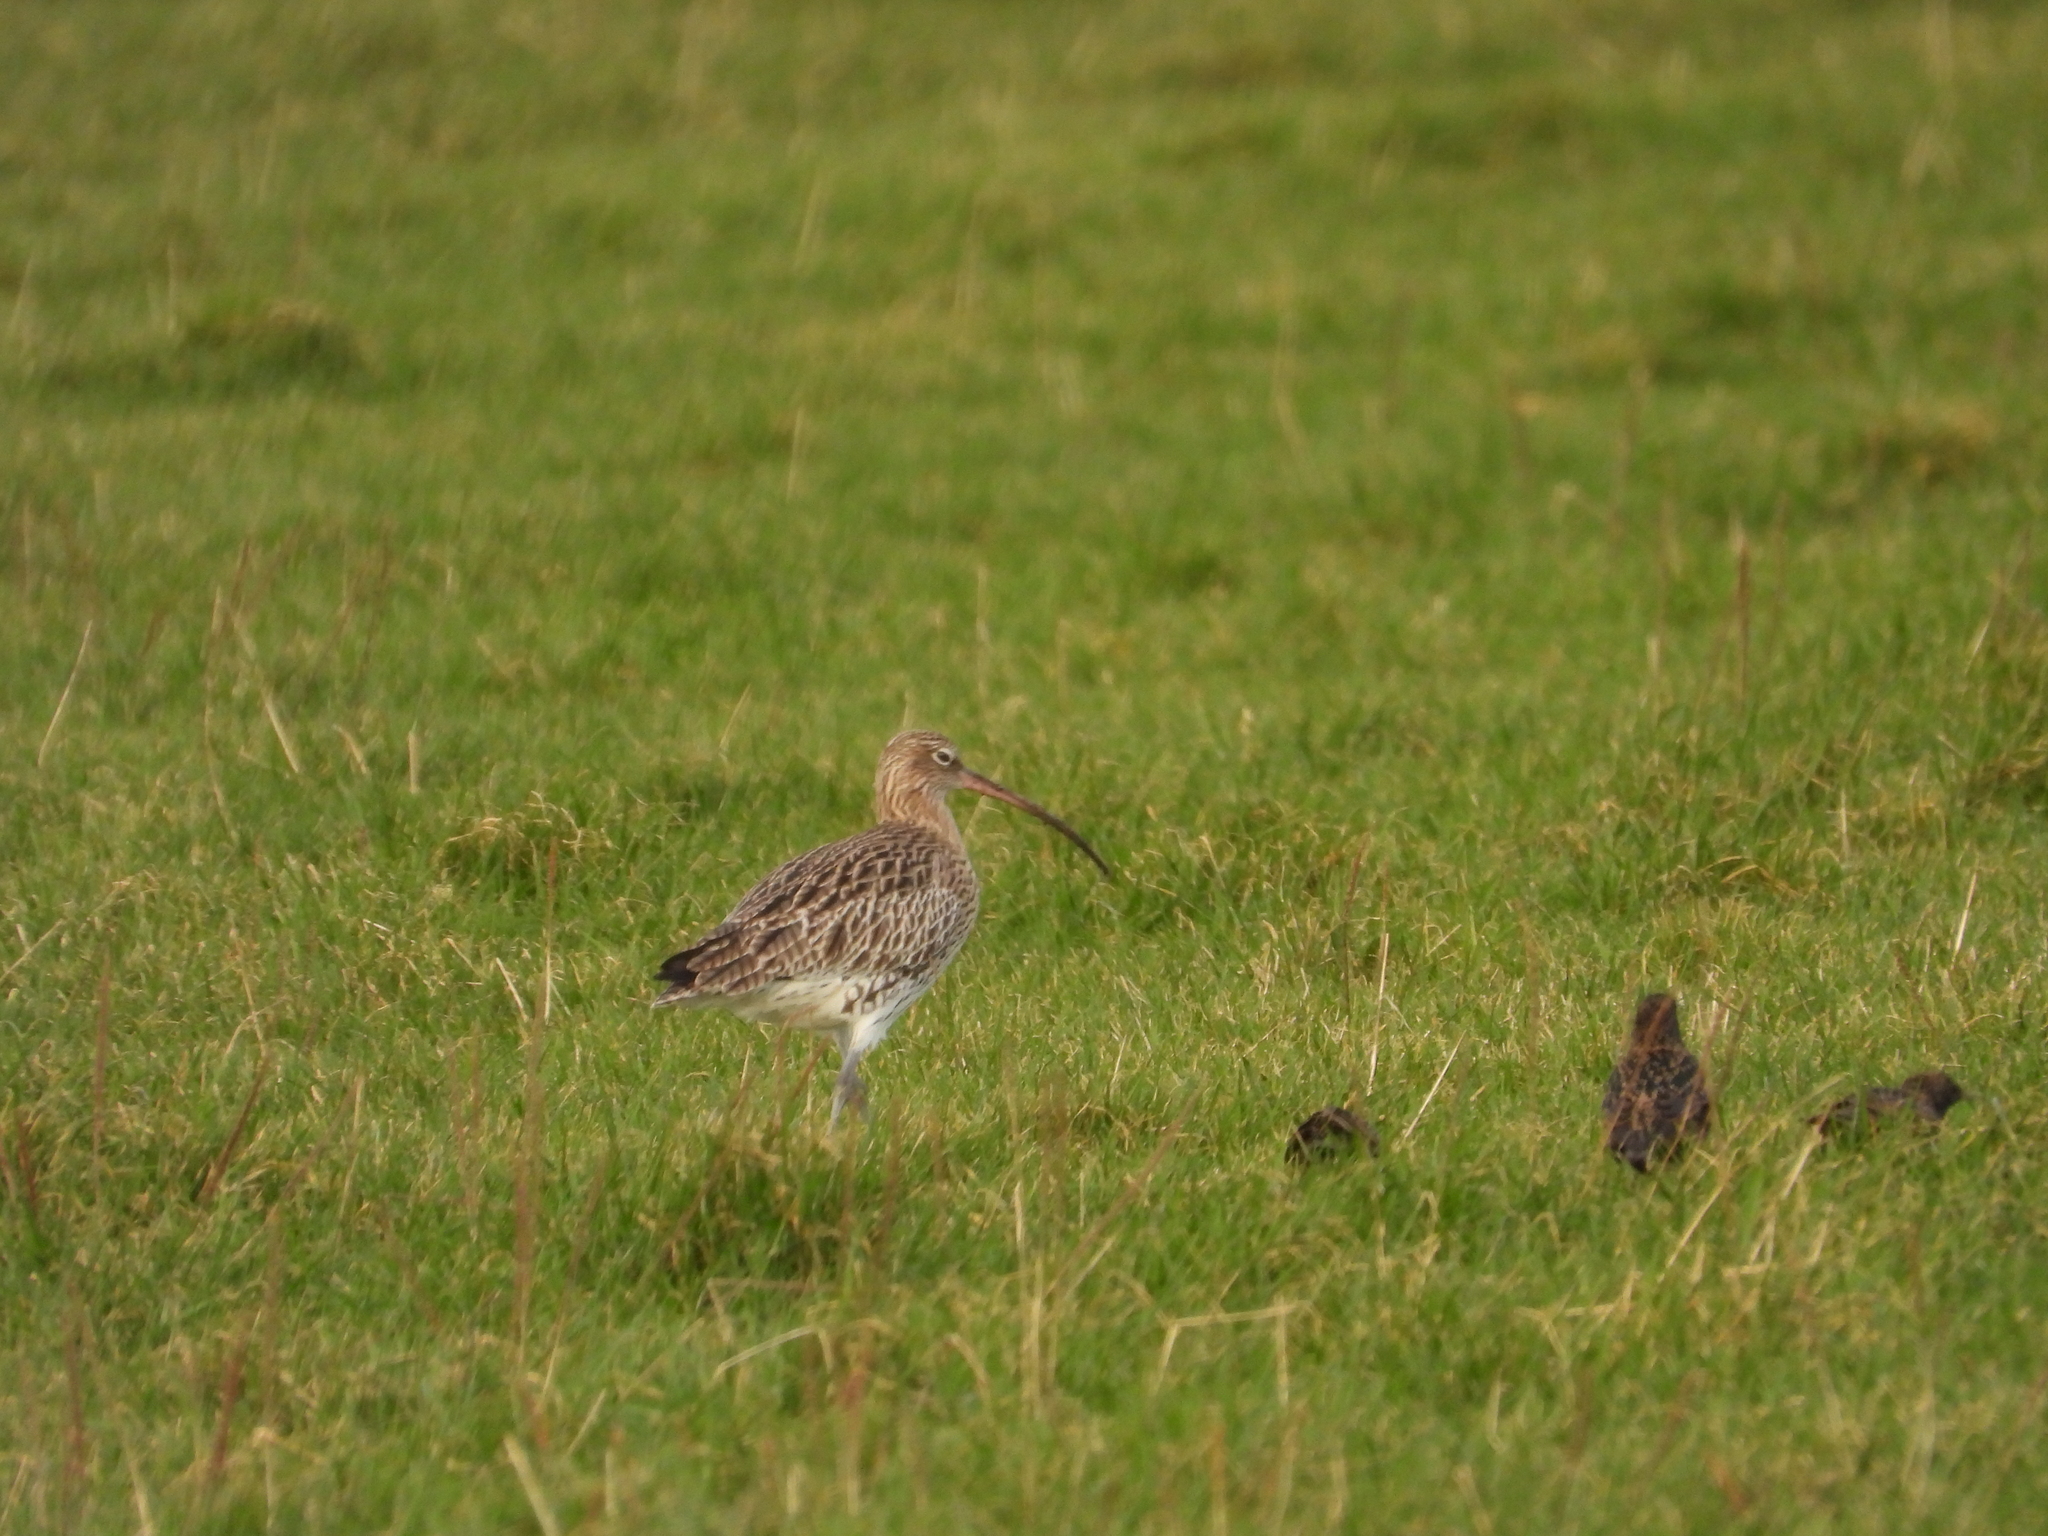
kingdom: Animalia
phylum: Chordata
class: Aves
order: Charadriiformes
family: Scolopacidae
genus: Numenius
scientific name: Numenius arquata
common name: Eurasian curlew
